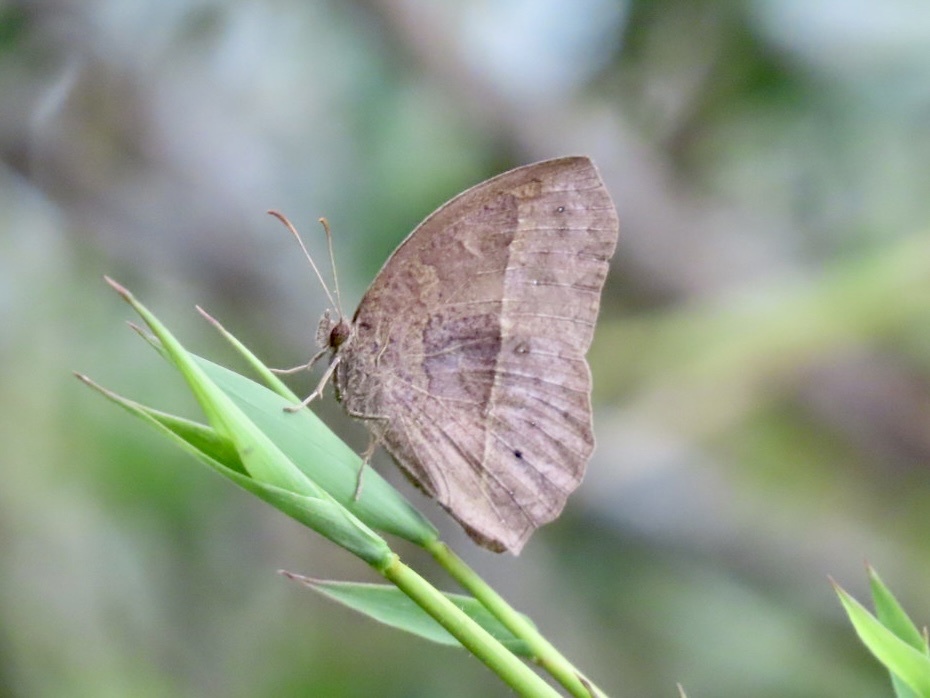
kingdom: Animalia
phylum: Arthropoda
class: Insecta
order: Lepidoptera
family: Nymphalidae
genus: Mycalesis
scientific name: Mycalesis horsfieldii
